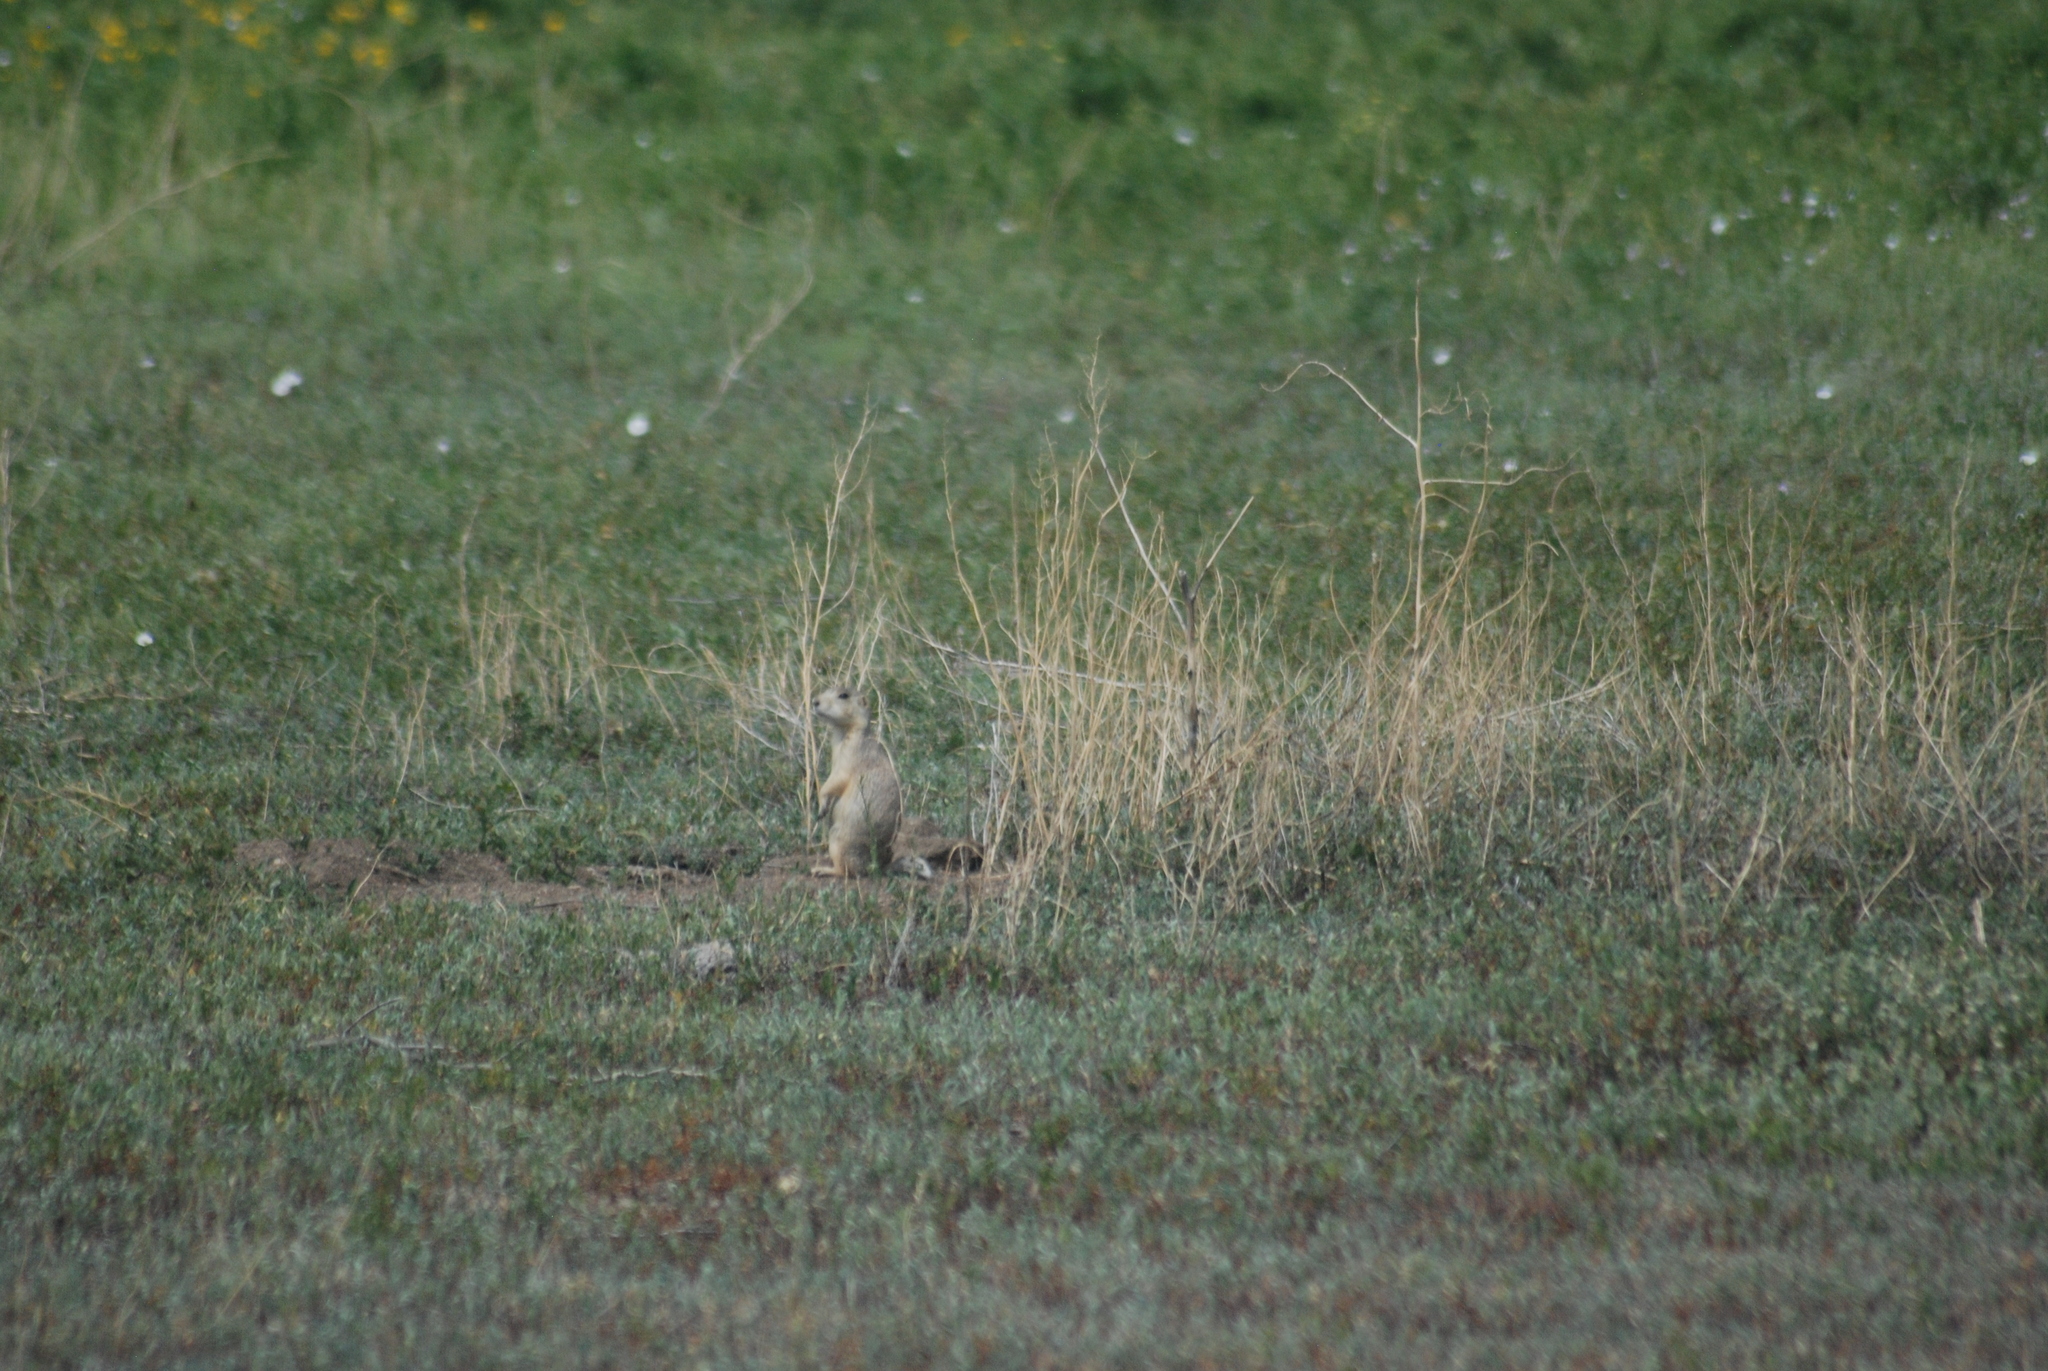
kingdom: Animalia
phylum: Chordata
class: Mammalia
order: Rodentia
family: Sciuridae
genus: Cynomys
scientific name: Cynomys gunnisoni
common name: Gunnison's prairie dog
